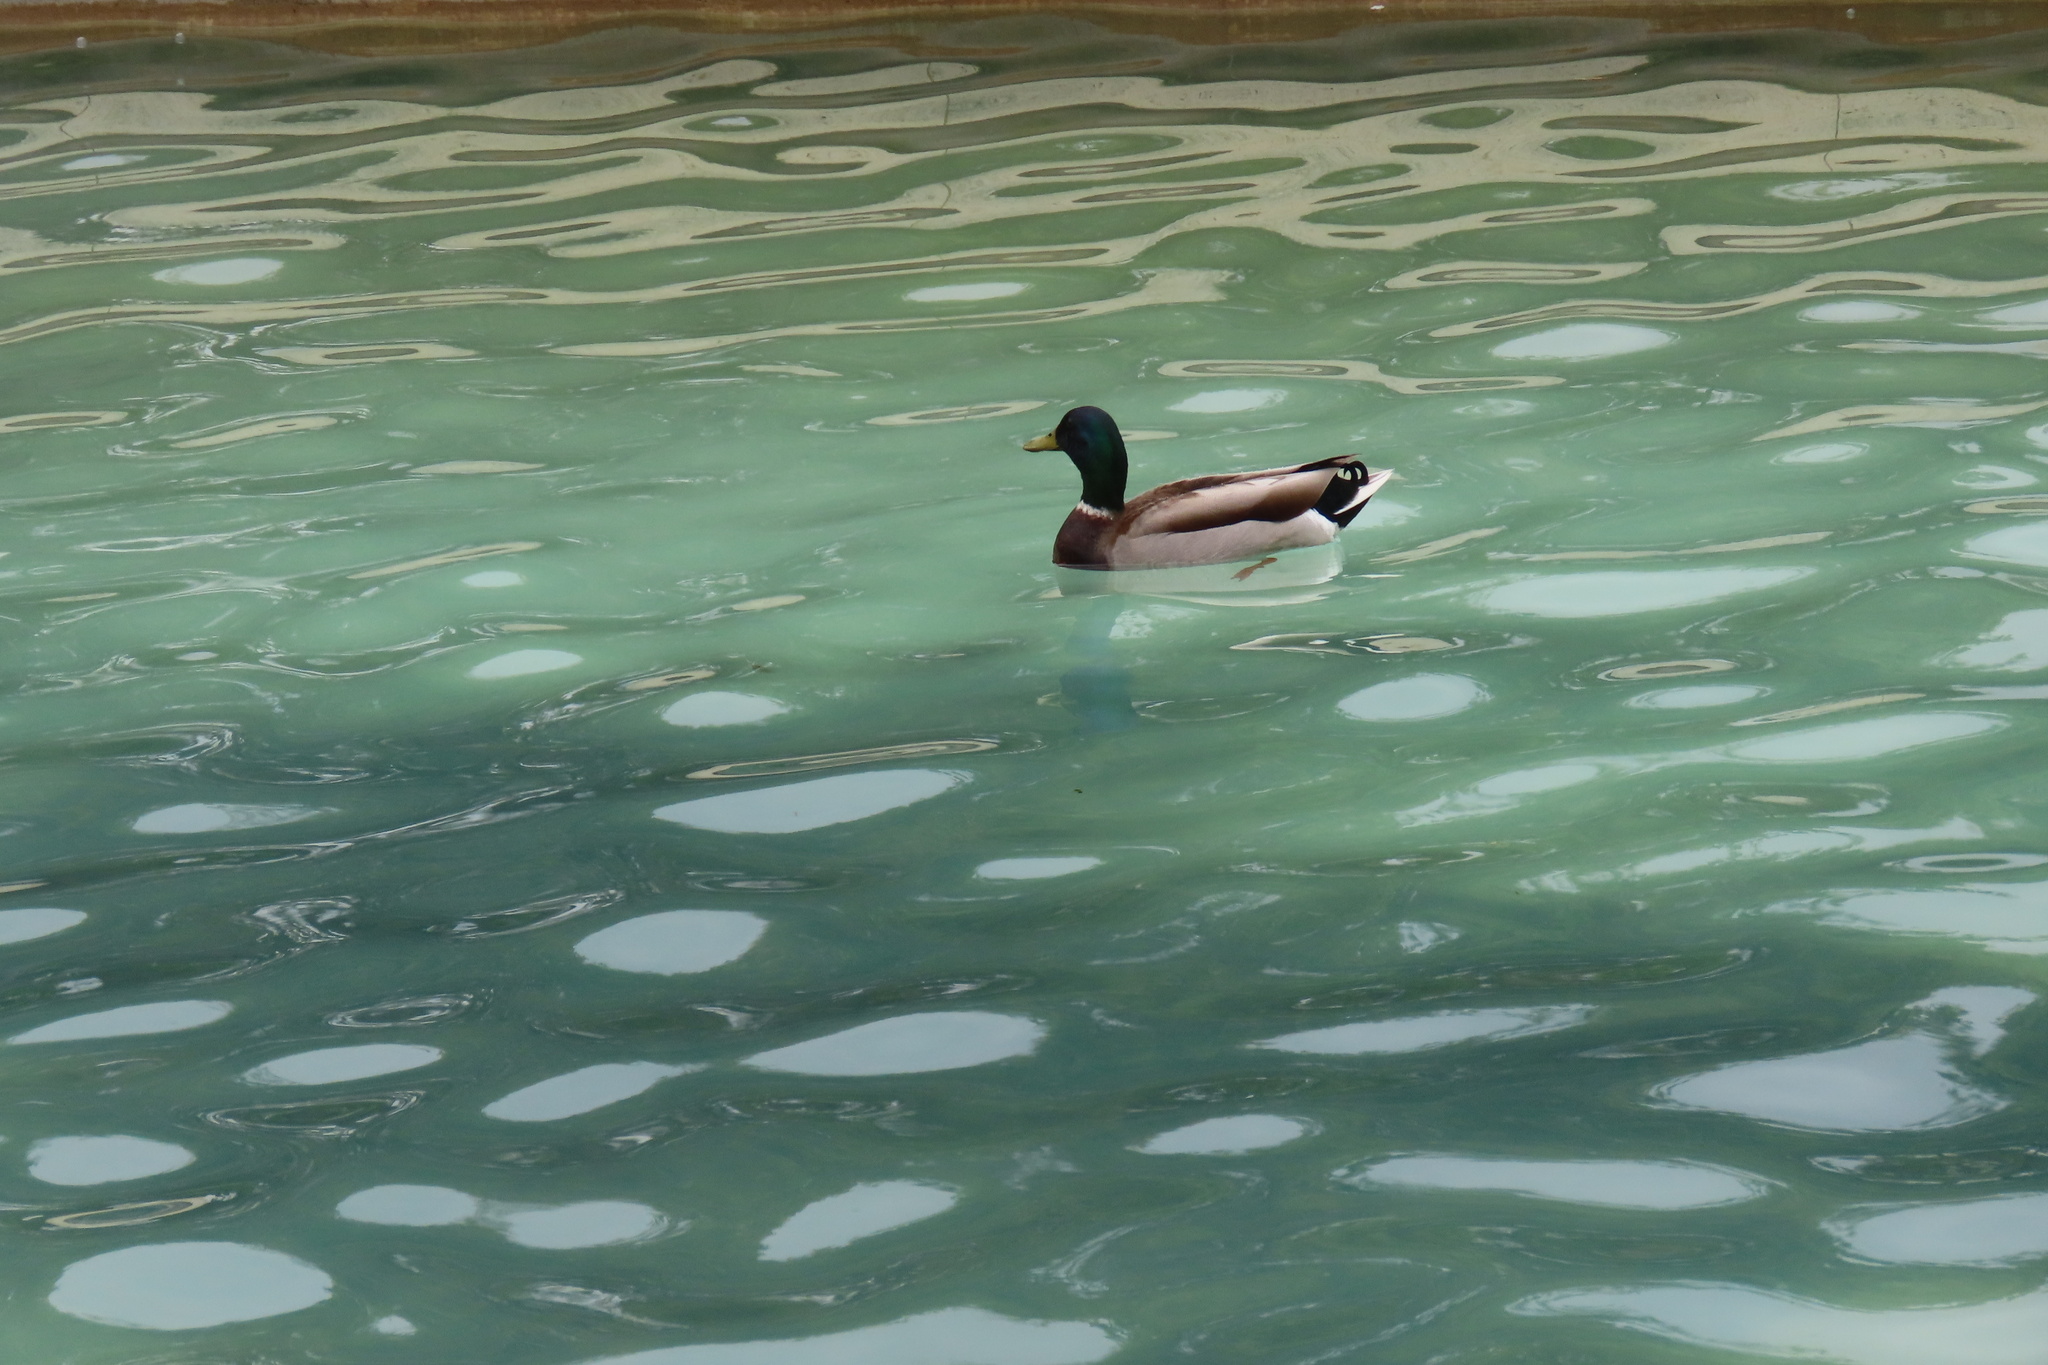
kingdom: Animalia
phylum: Chordata
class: Aves
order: Anseriformes
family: Anatidae
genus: Anas
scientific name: Anas platyrhynchos
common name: Mallard
